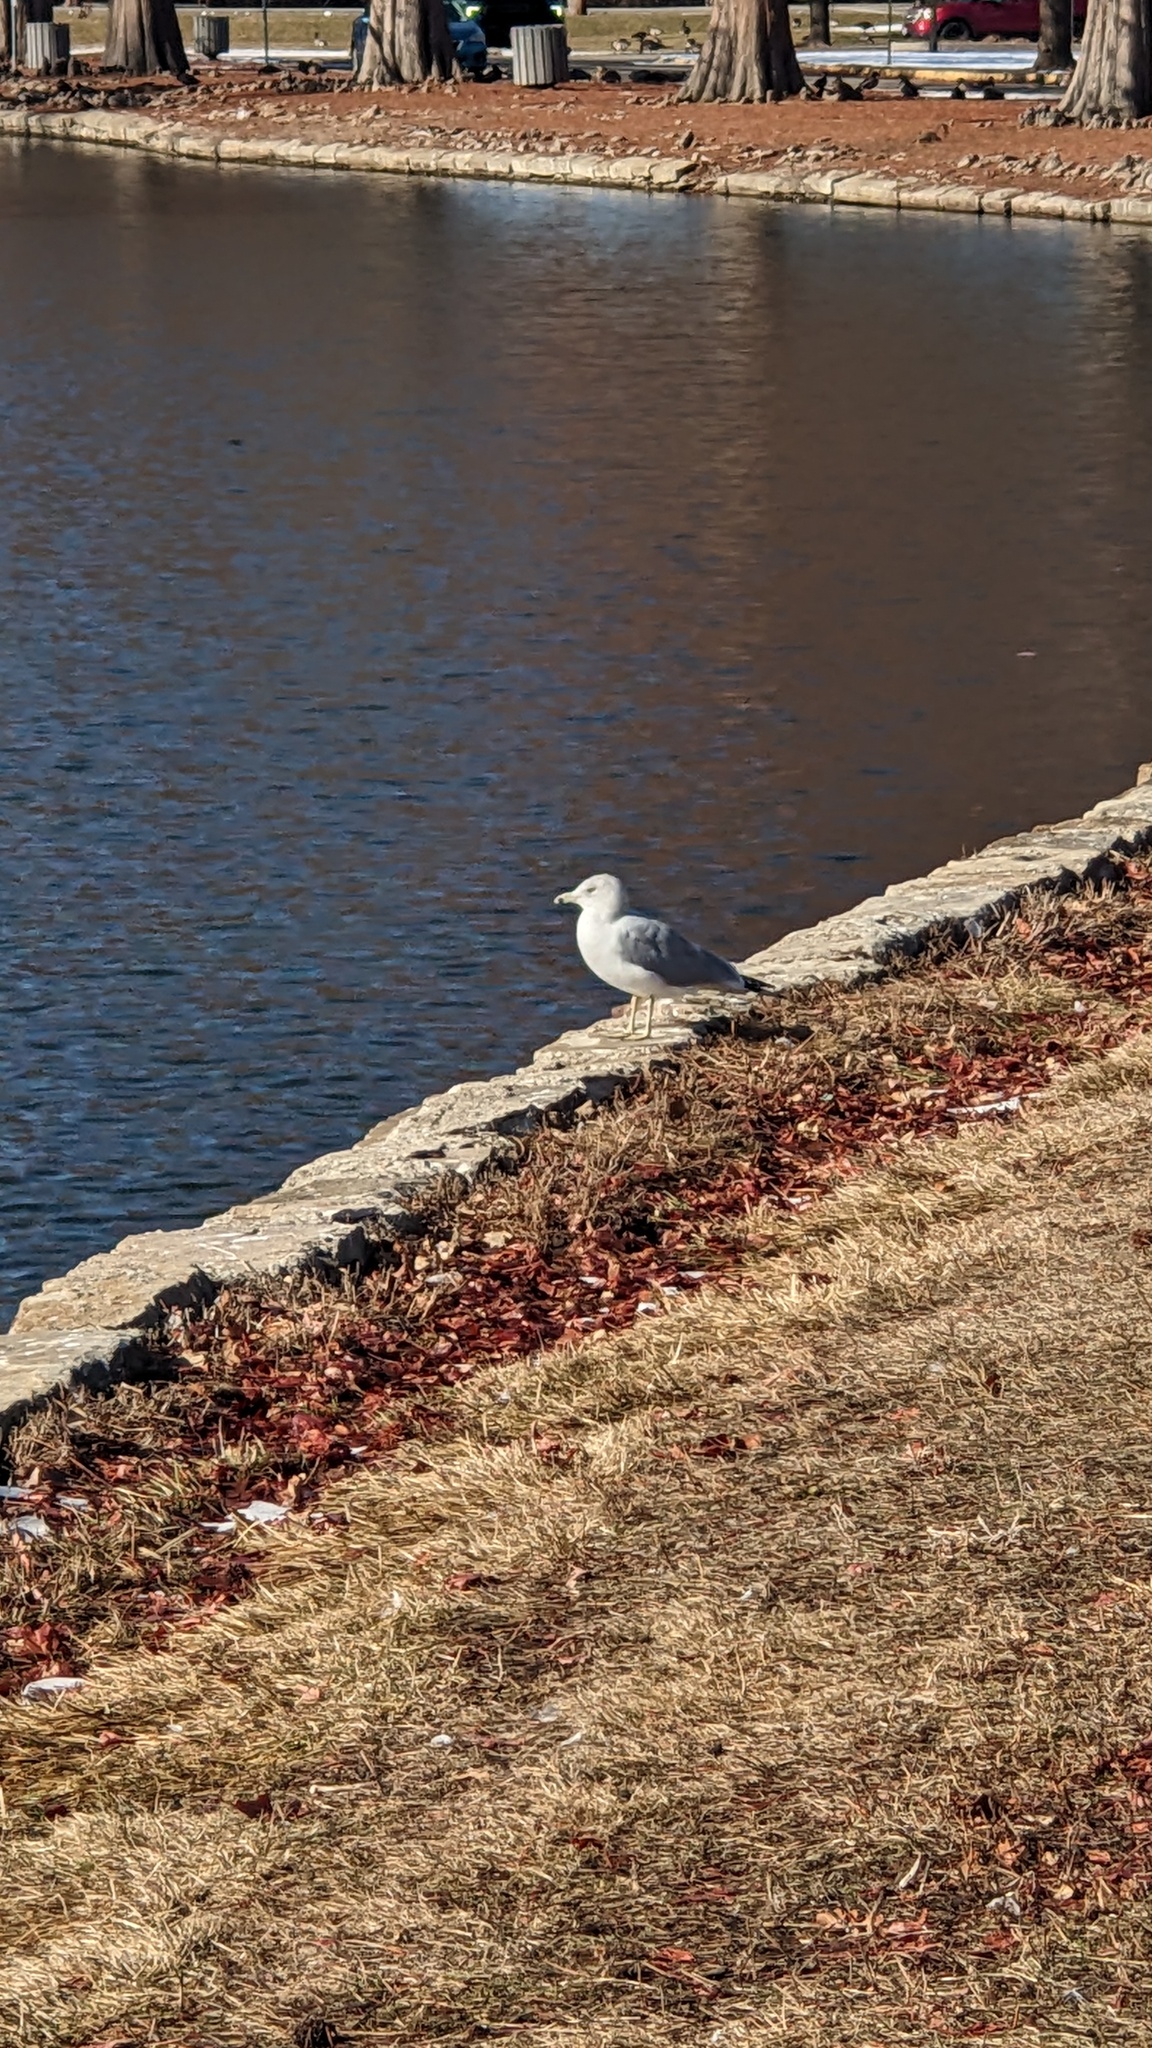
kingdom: Animalia
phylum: Chordata
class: Aves
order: Charadriiformes
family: Laridae
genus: Larus
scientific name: Larus delawarensis
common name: Ring-billed gull
